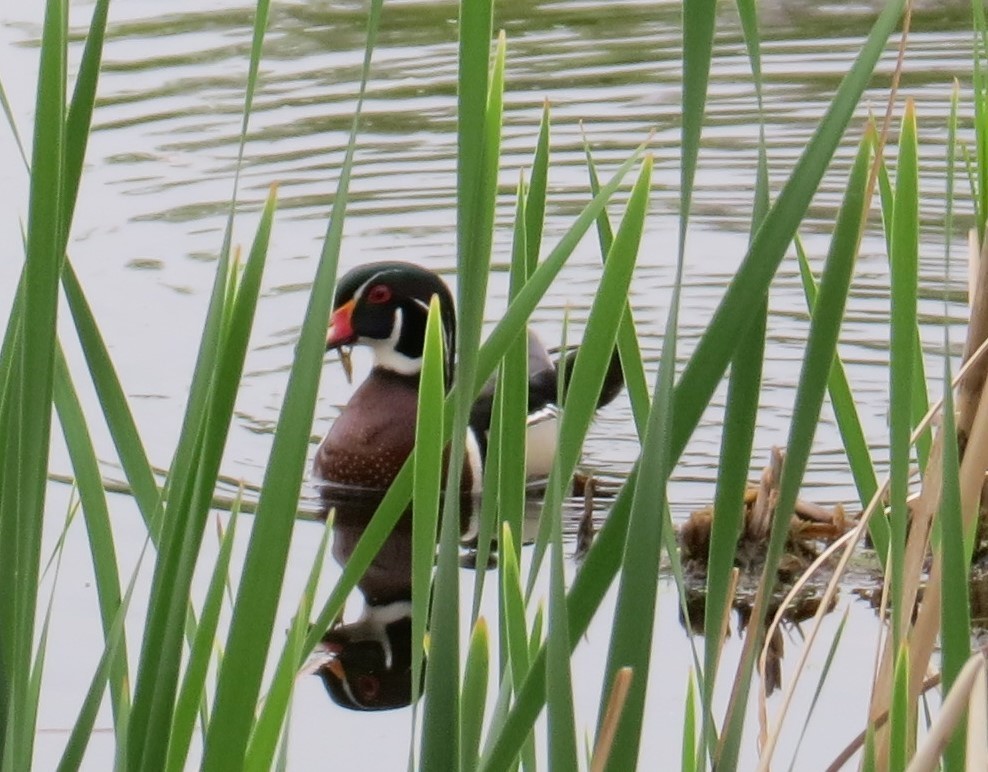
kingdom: Animalia
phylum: Chordata
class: Aves
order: Anseriformes
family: Anatidae
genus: Aix
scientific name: Aix sponsa
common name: Wood duck
